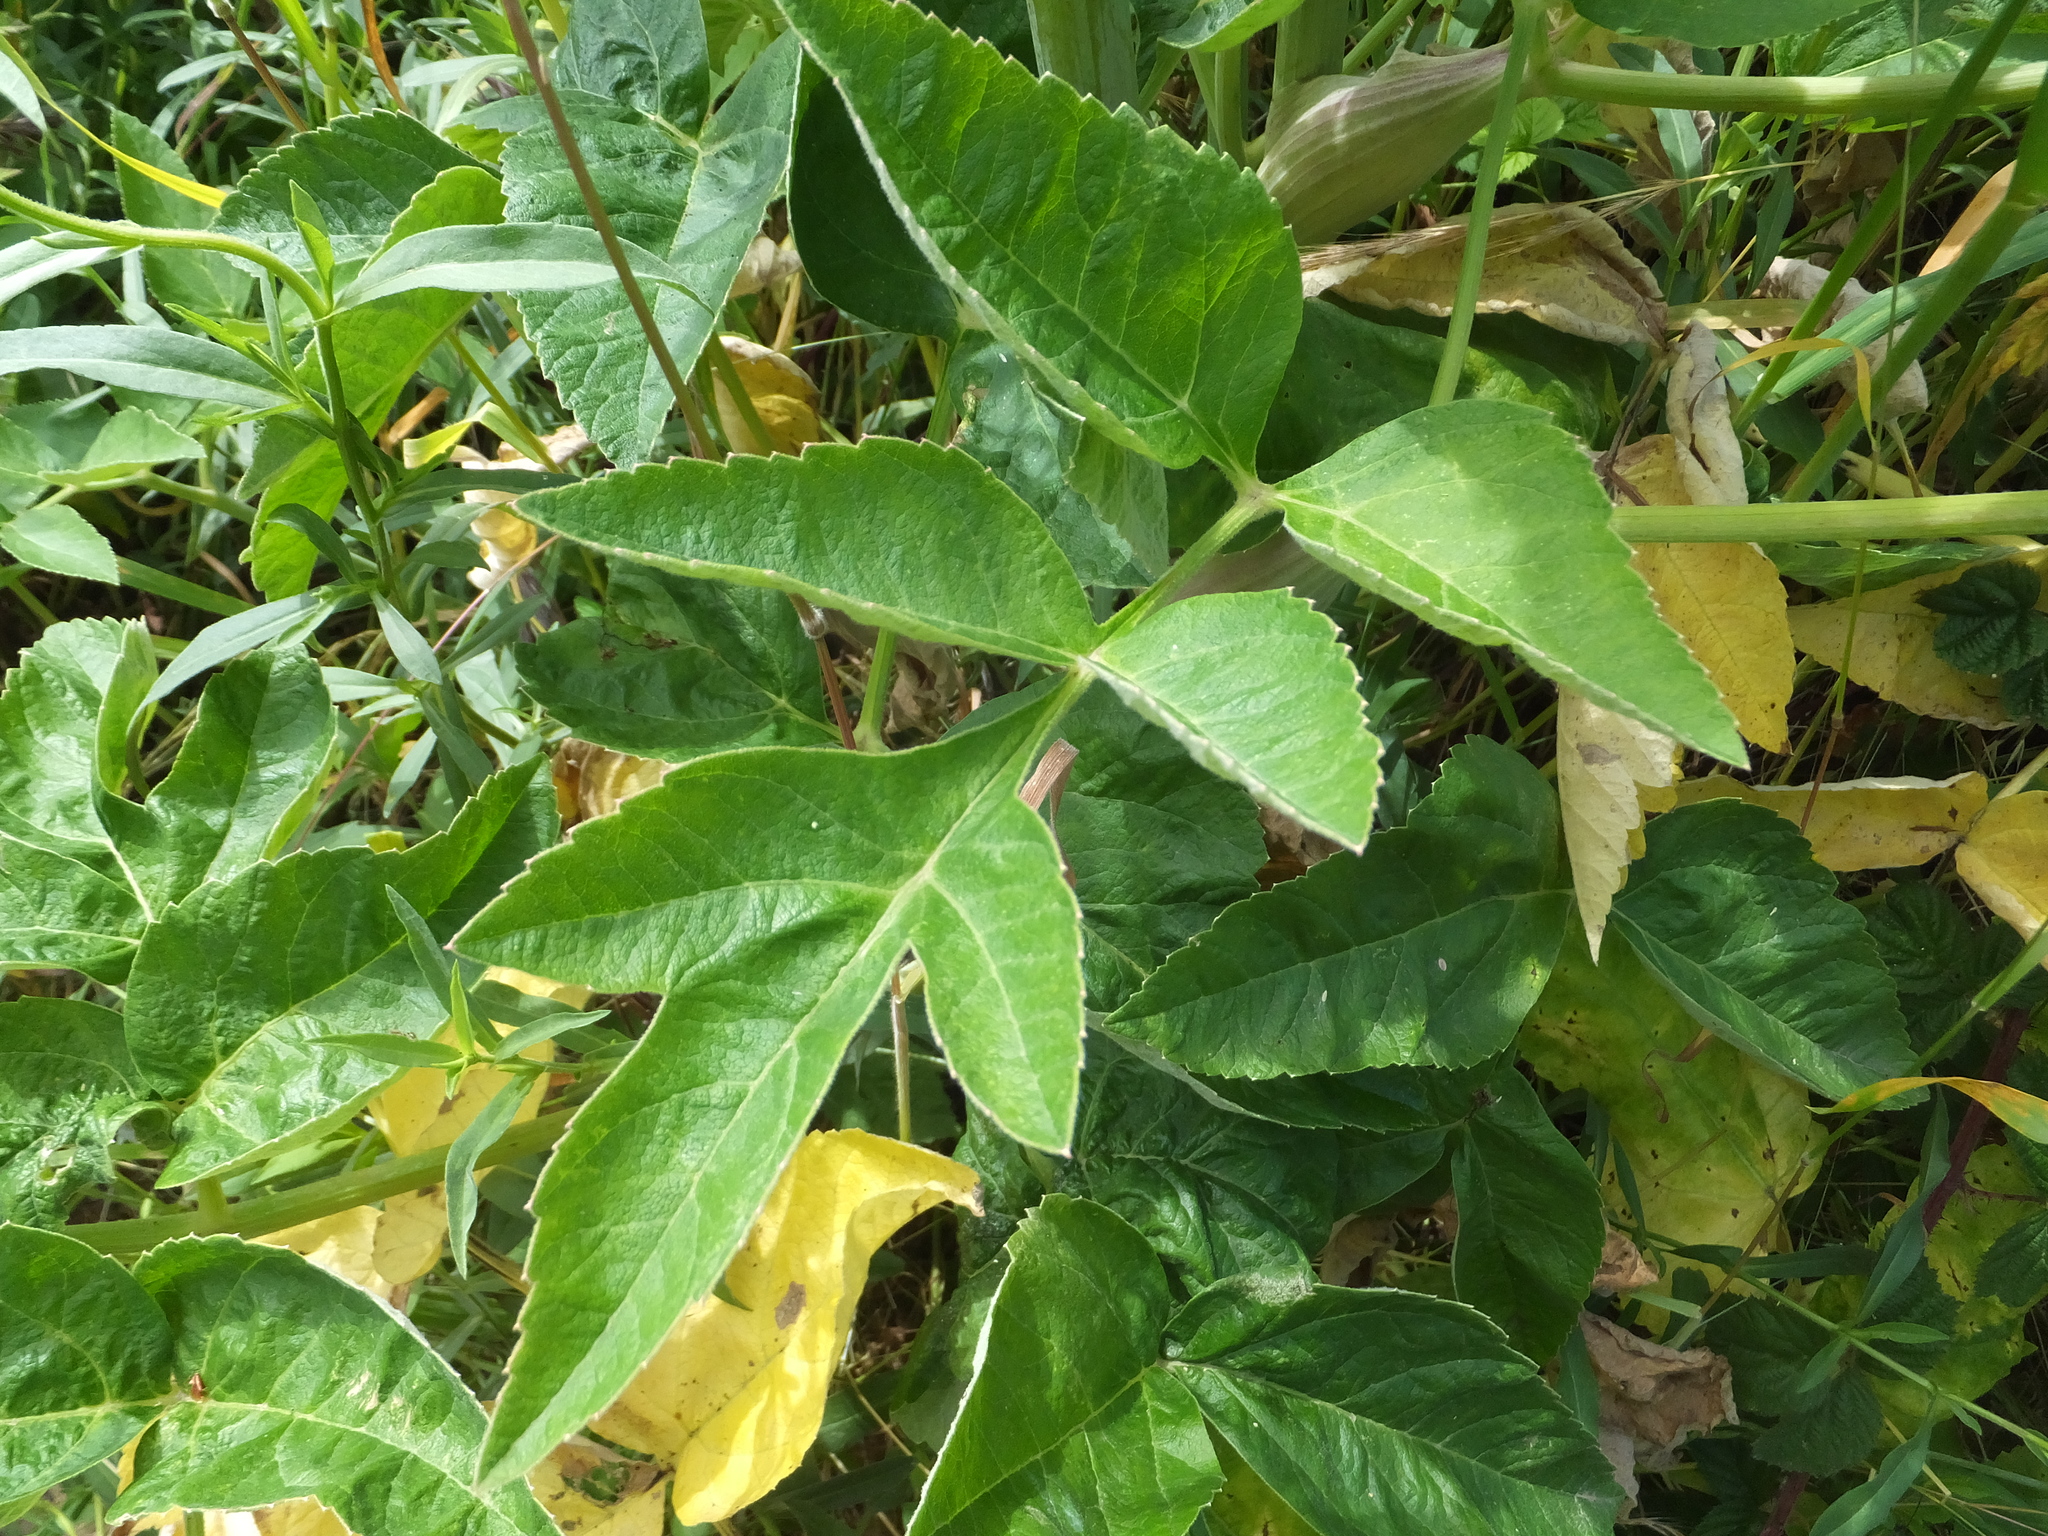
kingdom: Plantae
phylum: Tracheophyta
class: Magnoliopsida
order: Apiales
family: Apiaceae
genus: Angelica
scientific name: Angelica hendersonii
